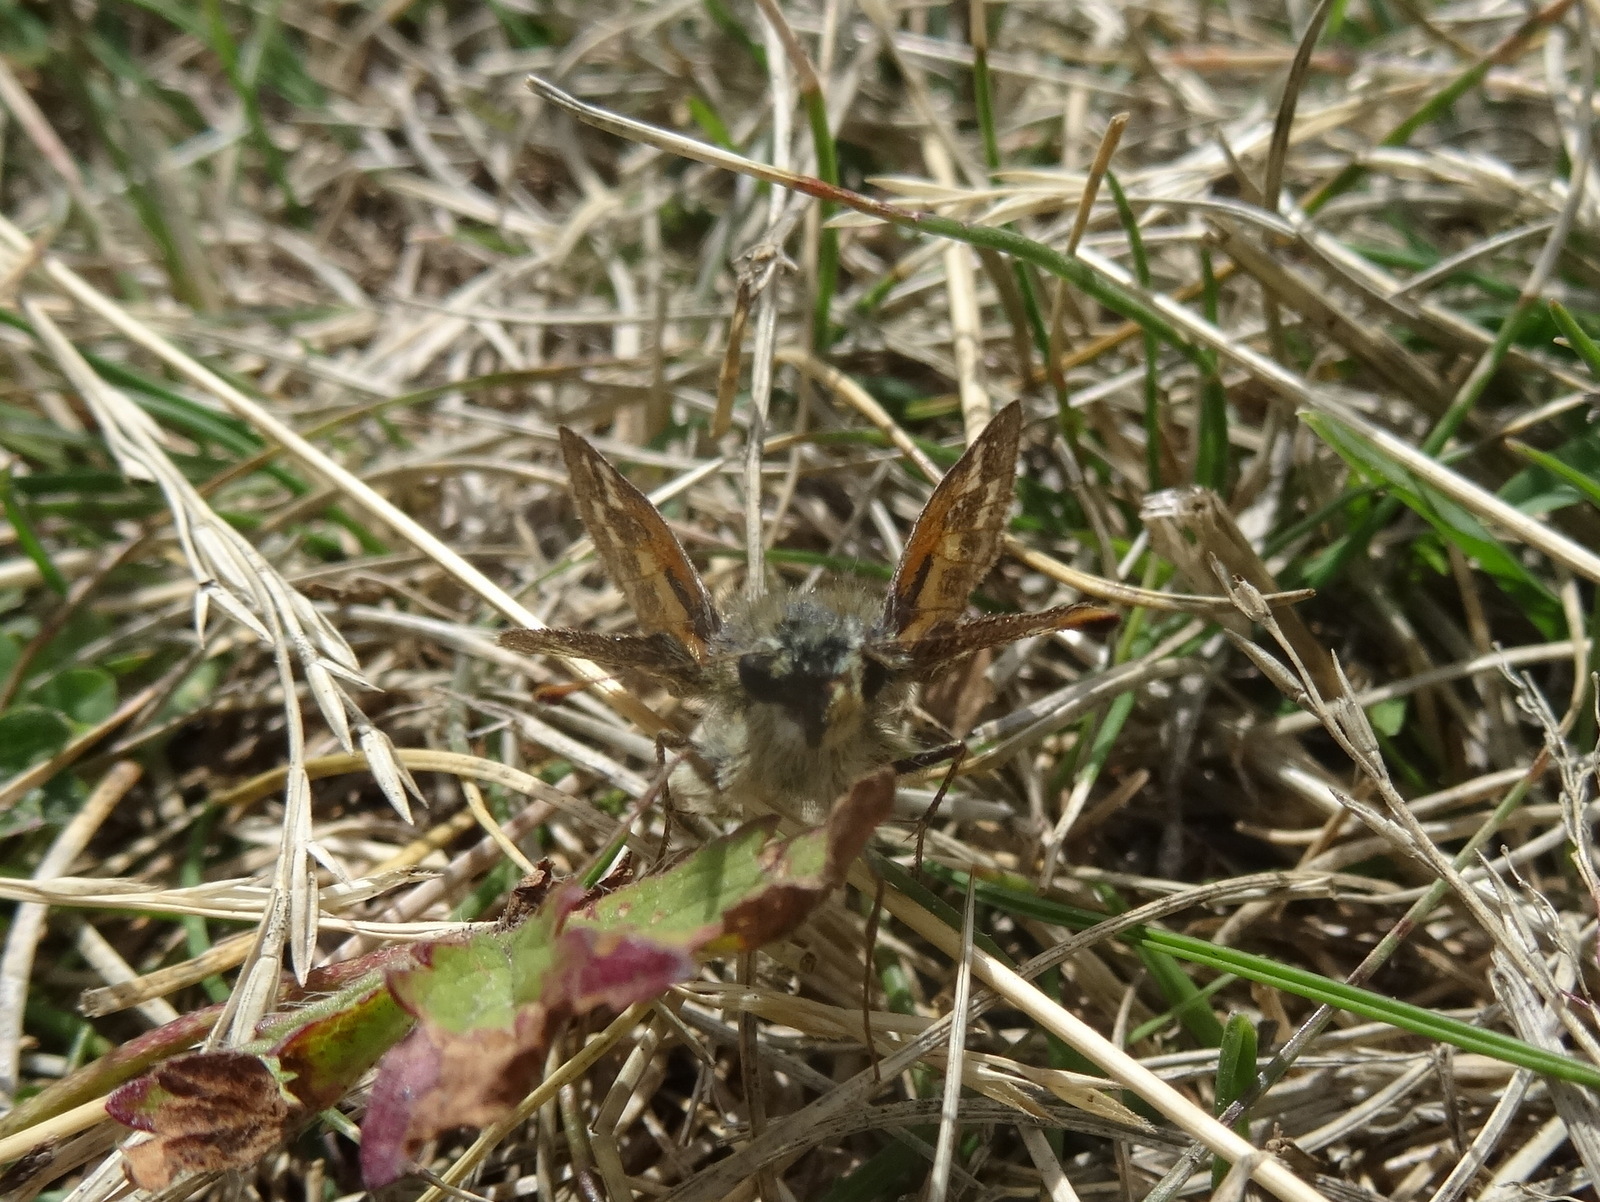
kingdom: Animalia
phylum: Arthropoda
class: Insecta
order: Lepidoptera
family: Hesperiidae
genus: Hesperia
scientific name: Hesperia comma
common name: Common branded skipper
